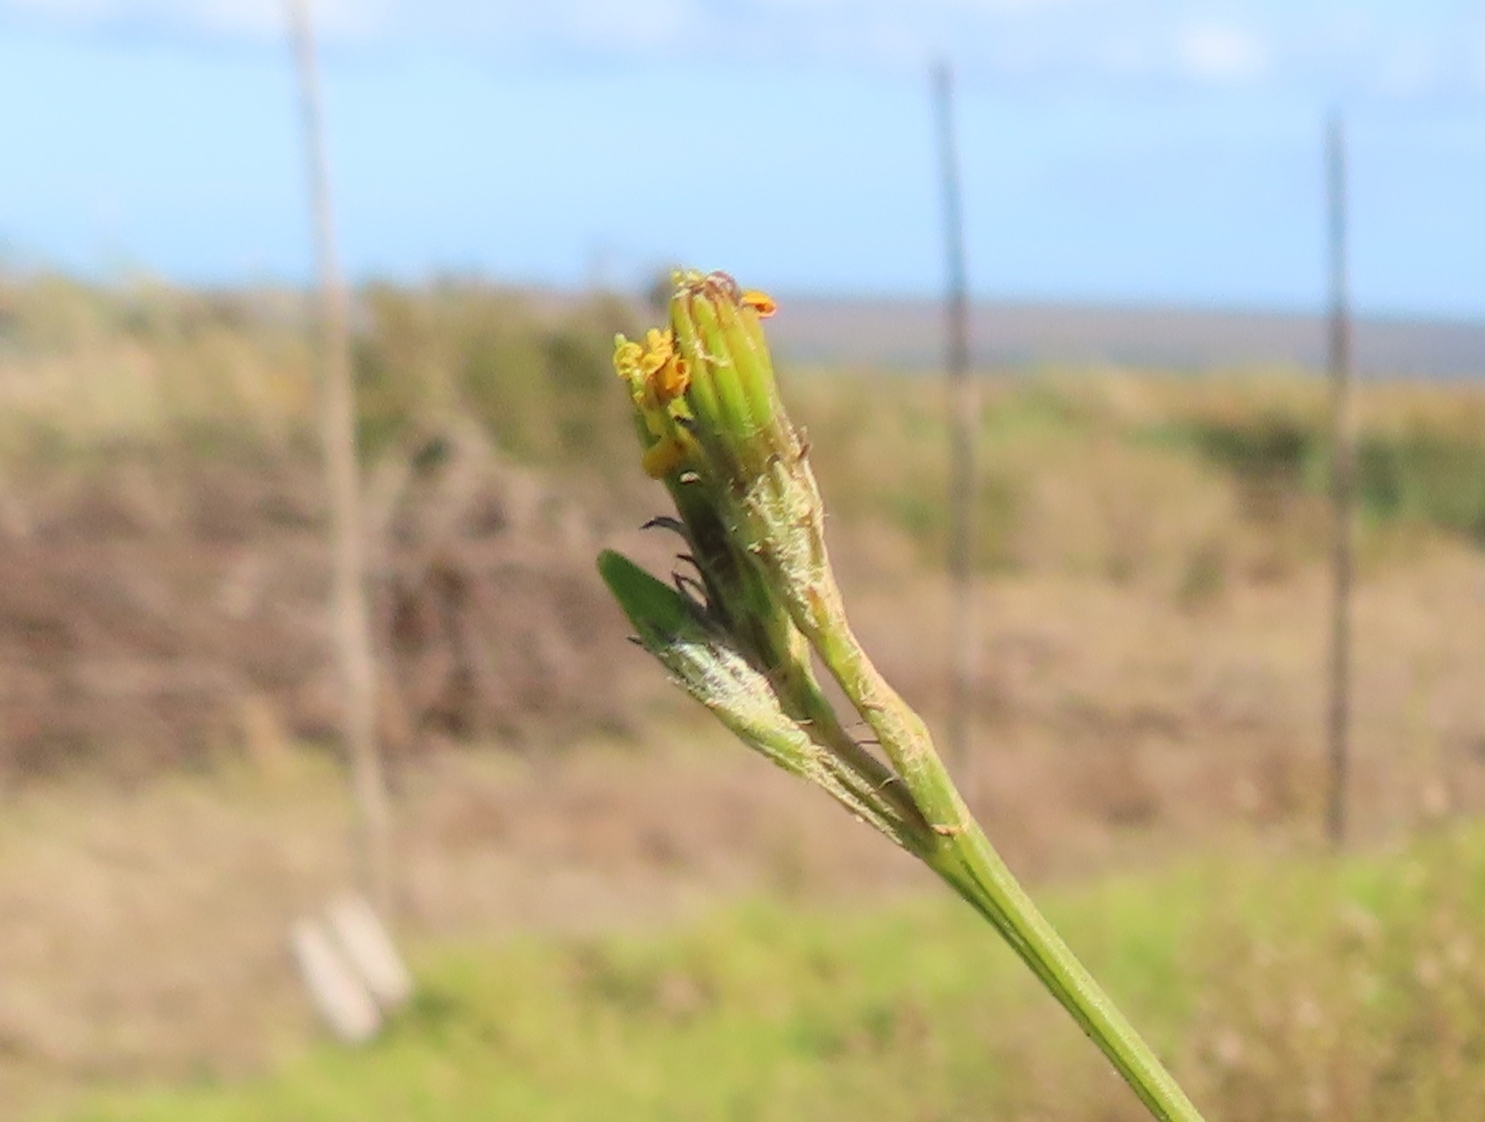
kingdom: Plantae
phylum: Tracheophyta
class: Magnoliopsida
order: Asterales
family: Asteraceae
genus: Senecio
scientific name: Senecio pubigerus
